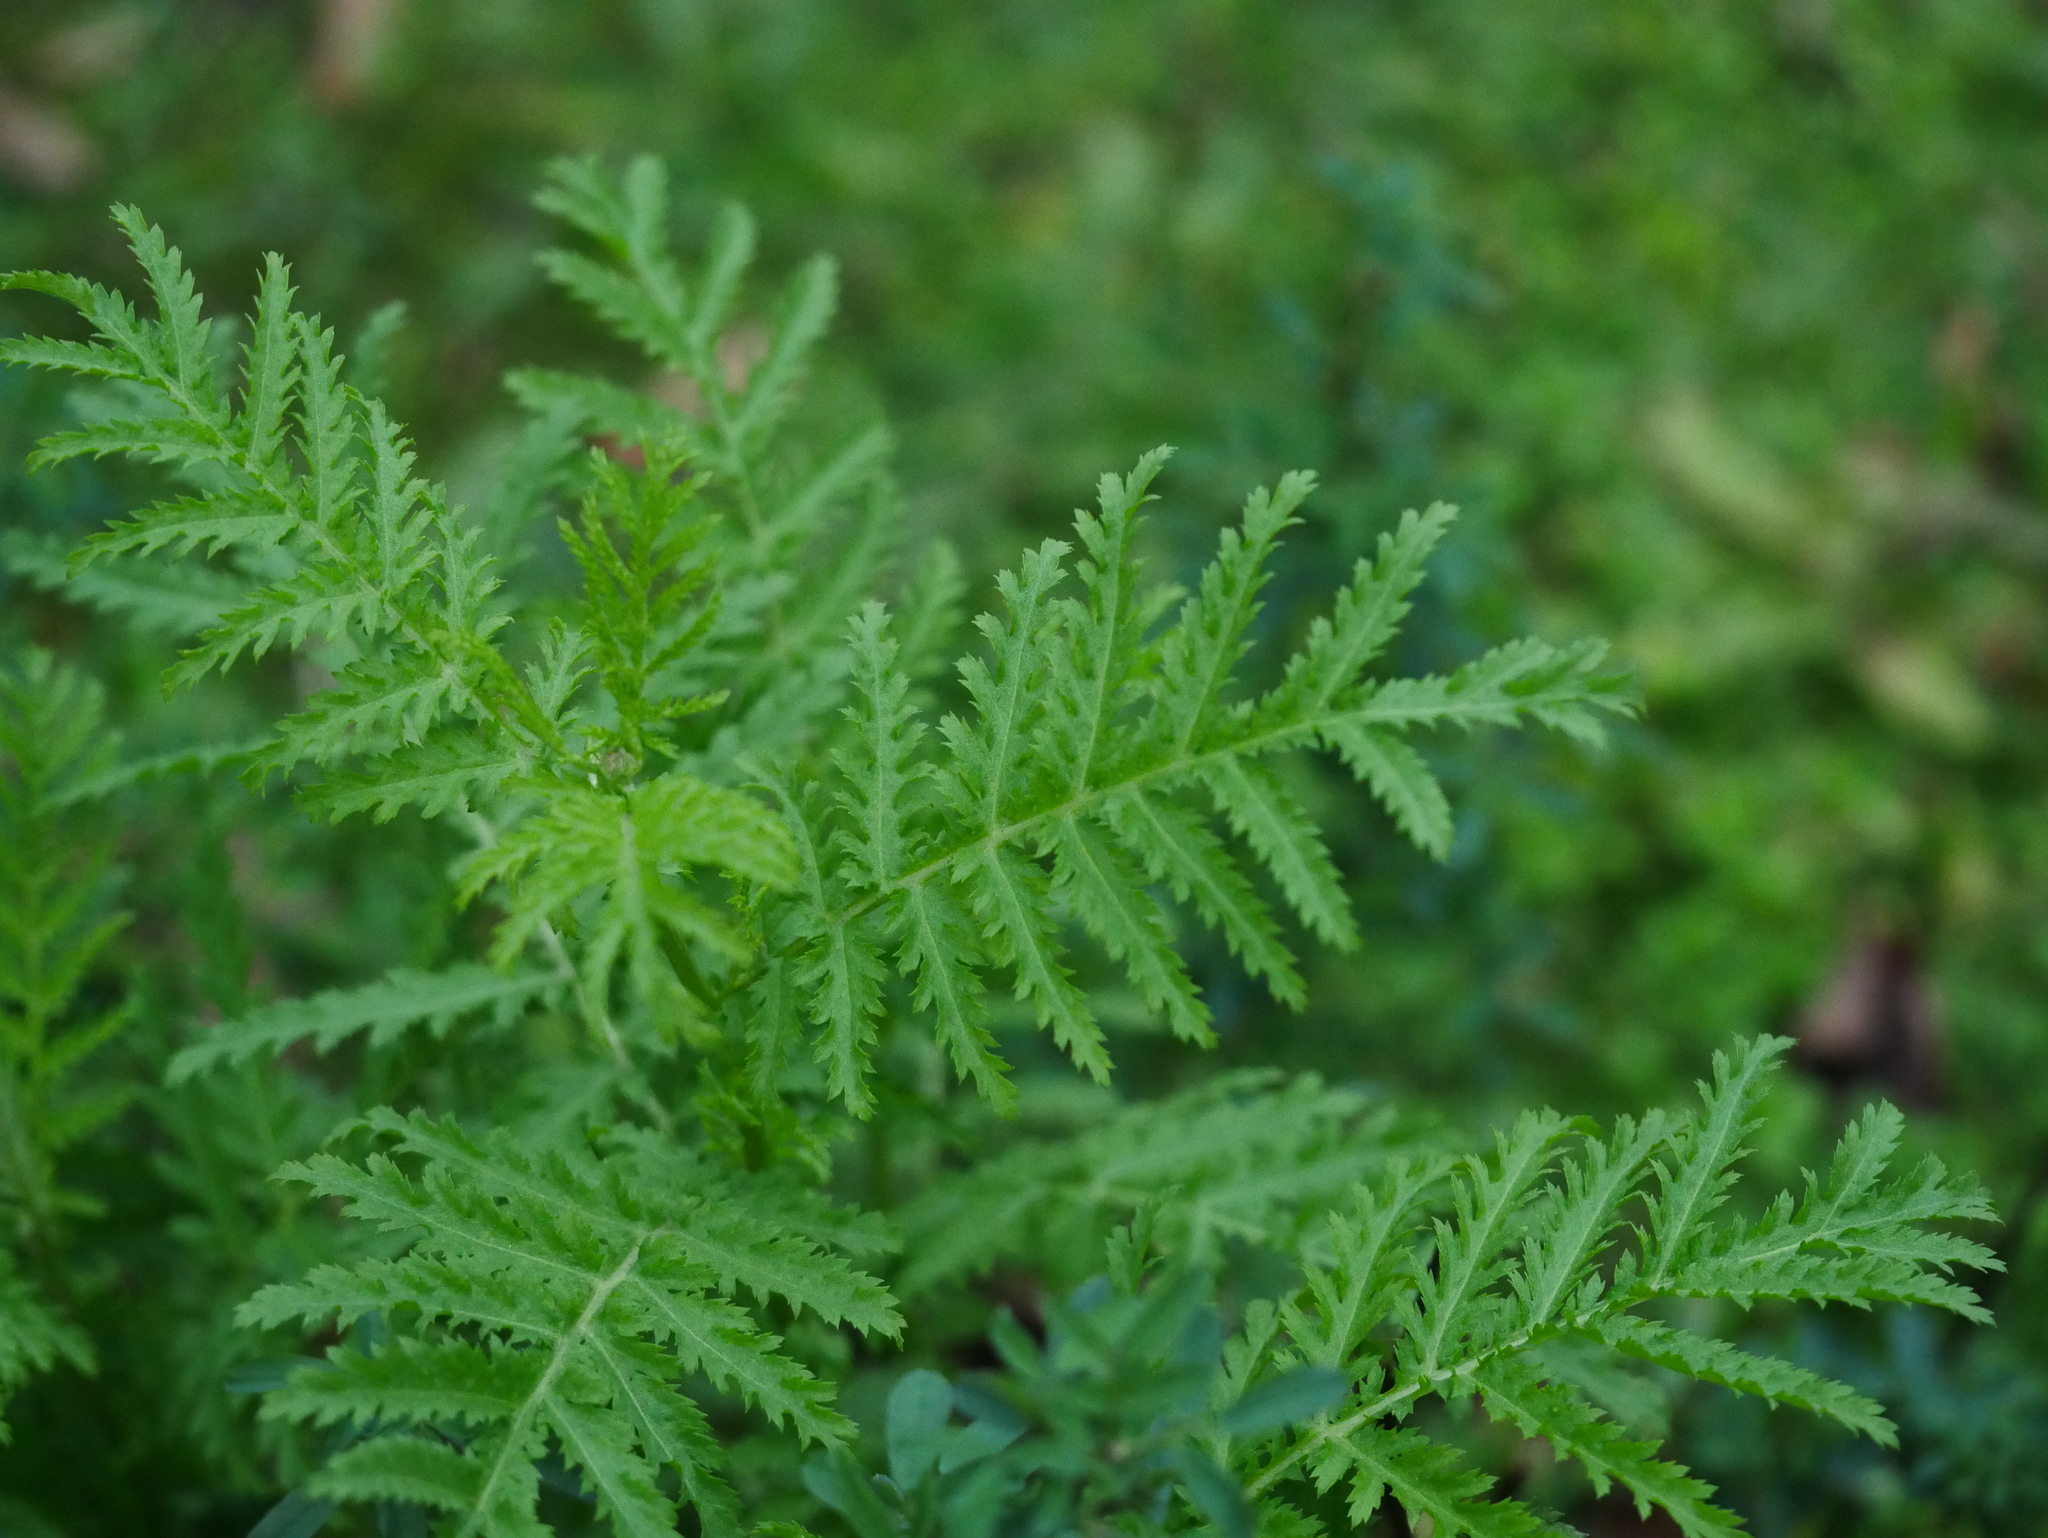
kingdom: Plantae
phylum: Tracheophyta
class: Magnoliopsida
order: Asterales
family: Asteraceae
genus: Tanacetum
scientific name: Tanacetum vulgare
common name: Common tansy
